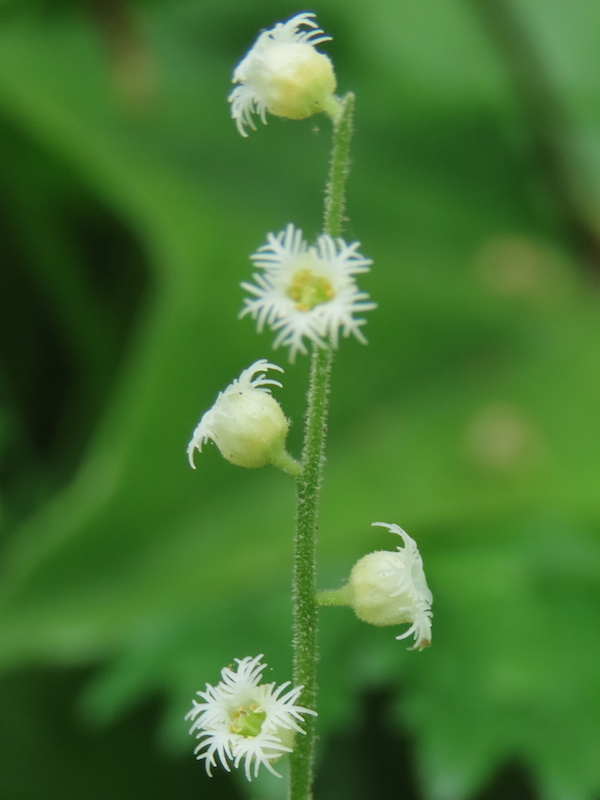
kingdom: Plantae
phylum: Tracheophyta
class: Magnoliopsida
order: Saxifragales
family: Saxifragaceae
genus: Mitella
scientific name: Mitella diphylla
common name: Coolwort
